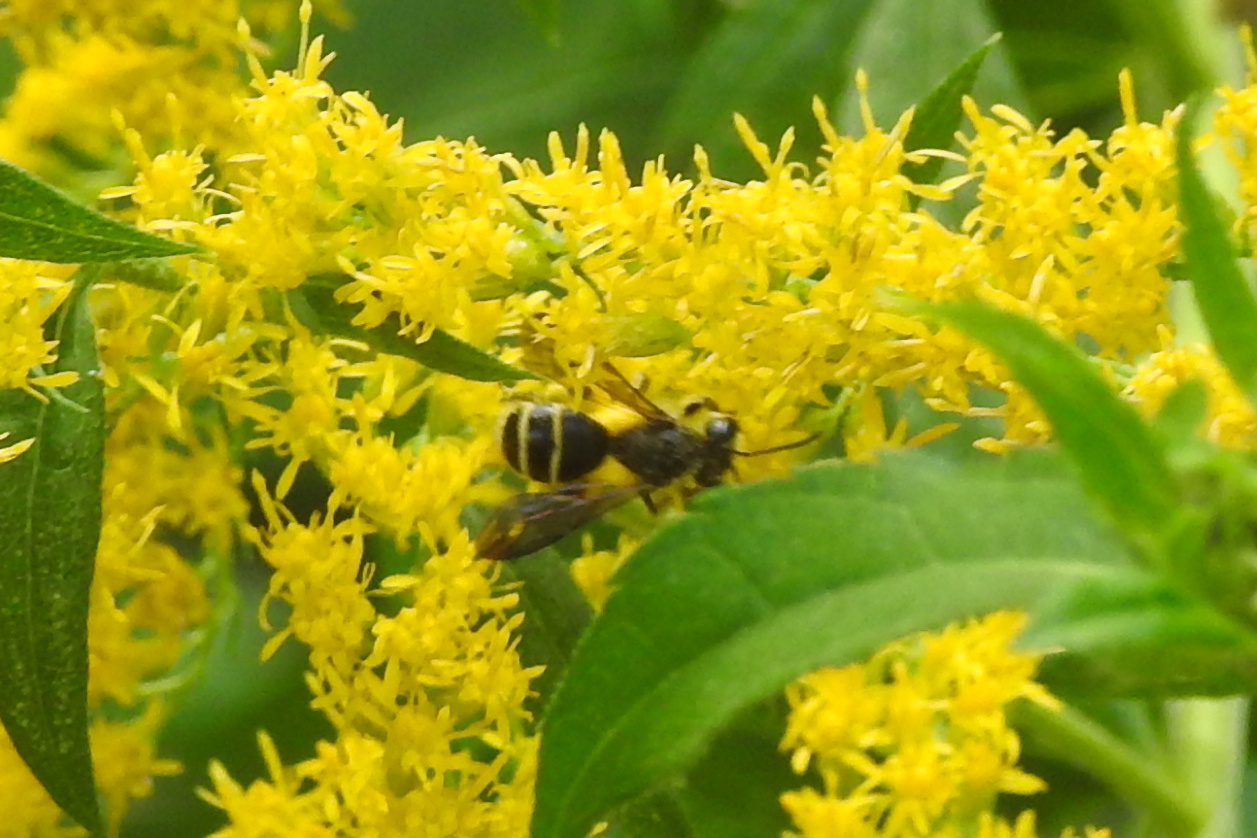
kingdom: Animalia
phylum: Arthropoda
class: Insecta
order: Hymenoptera
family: Andrenidae
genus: Andrena
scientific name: Andrena nubecula
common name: Cloudy-winged mining bee
